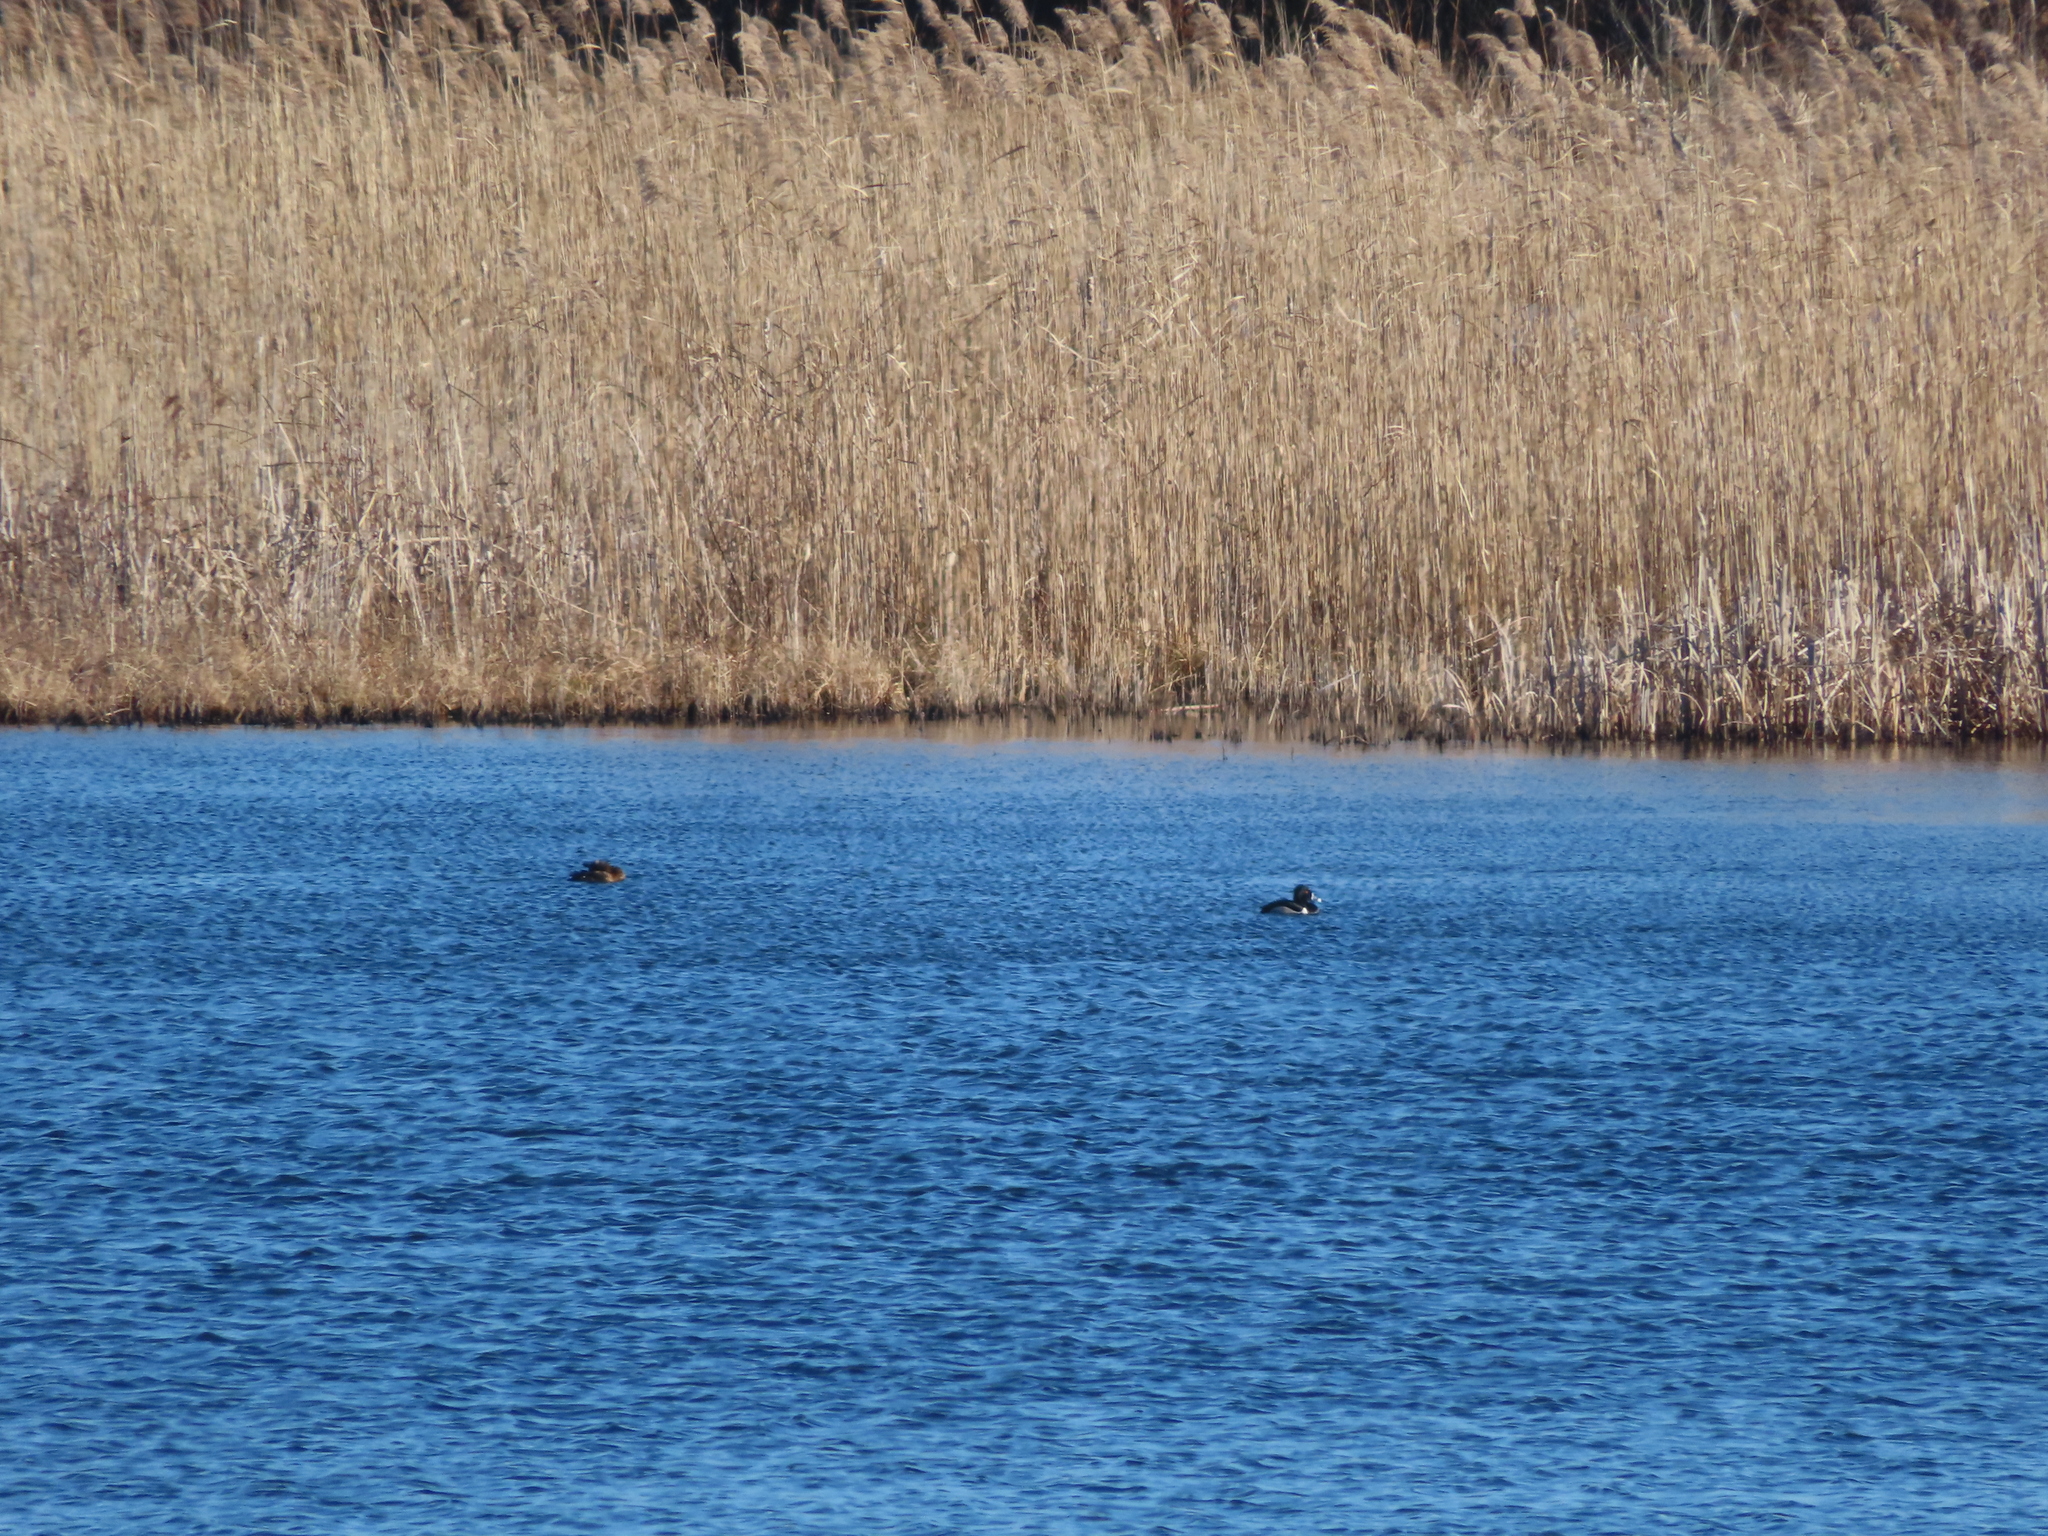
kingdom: Animalia
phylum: Chordata
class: Aves
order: Anseriformes
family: Anatidae
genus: Aythya
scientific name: Aythya collaris
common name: Ring-necked duck
